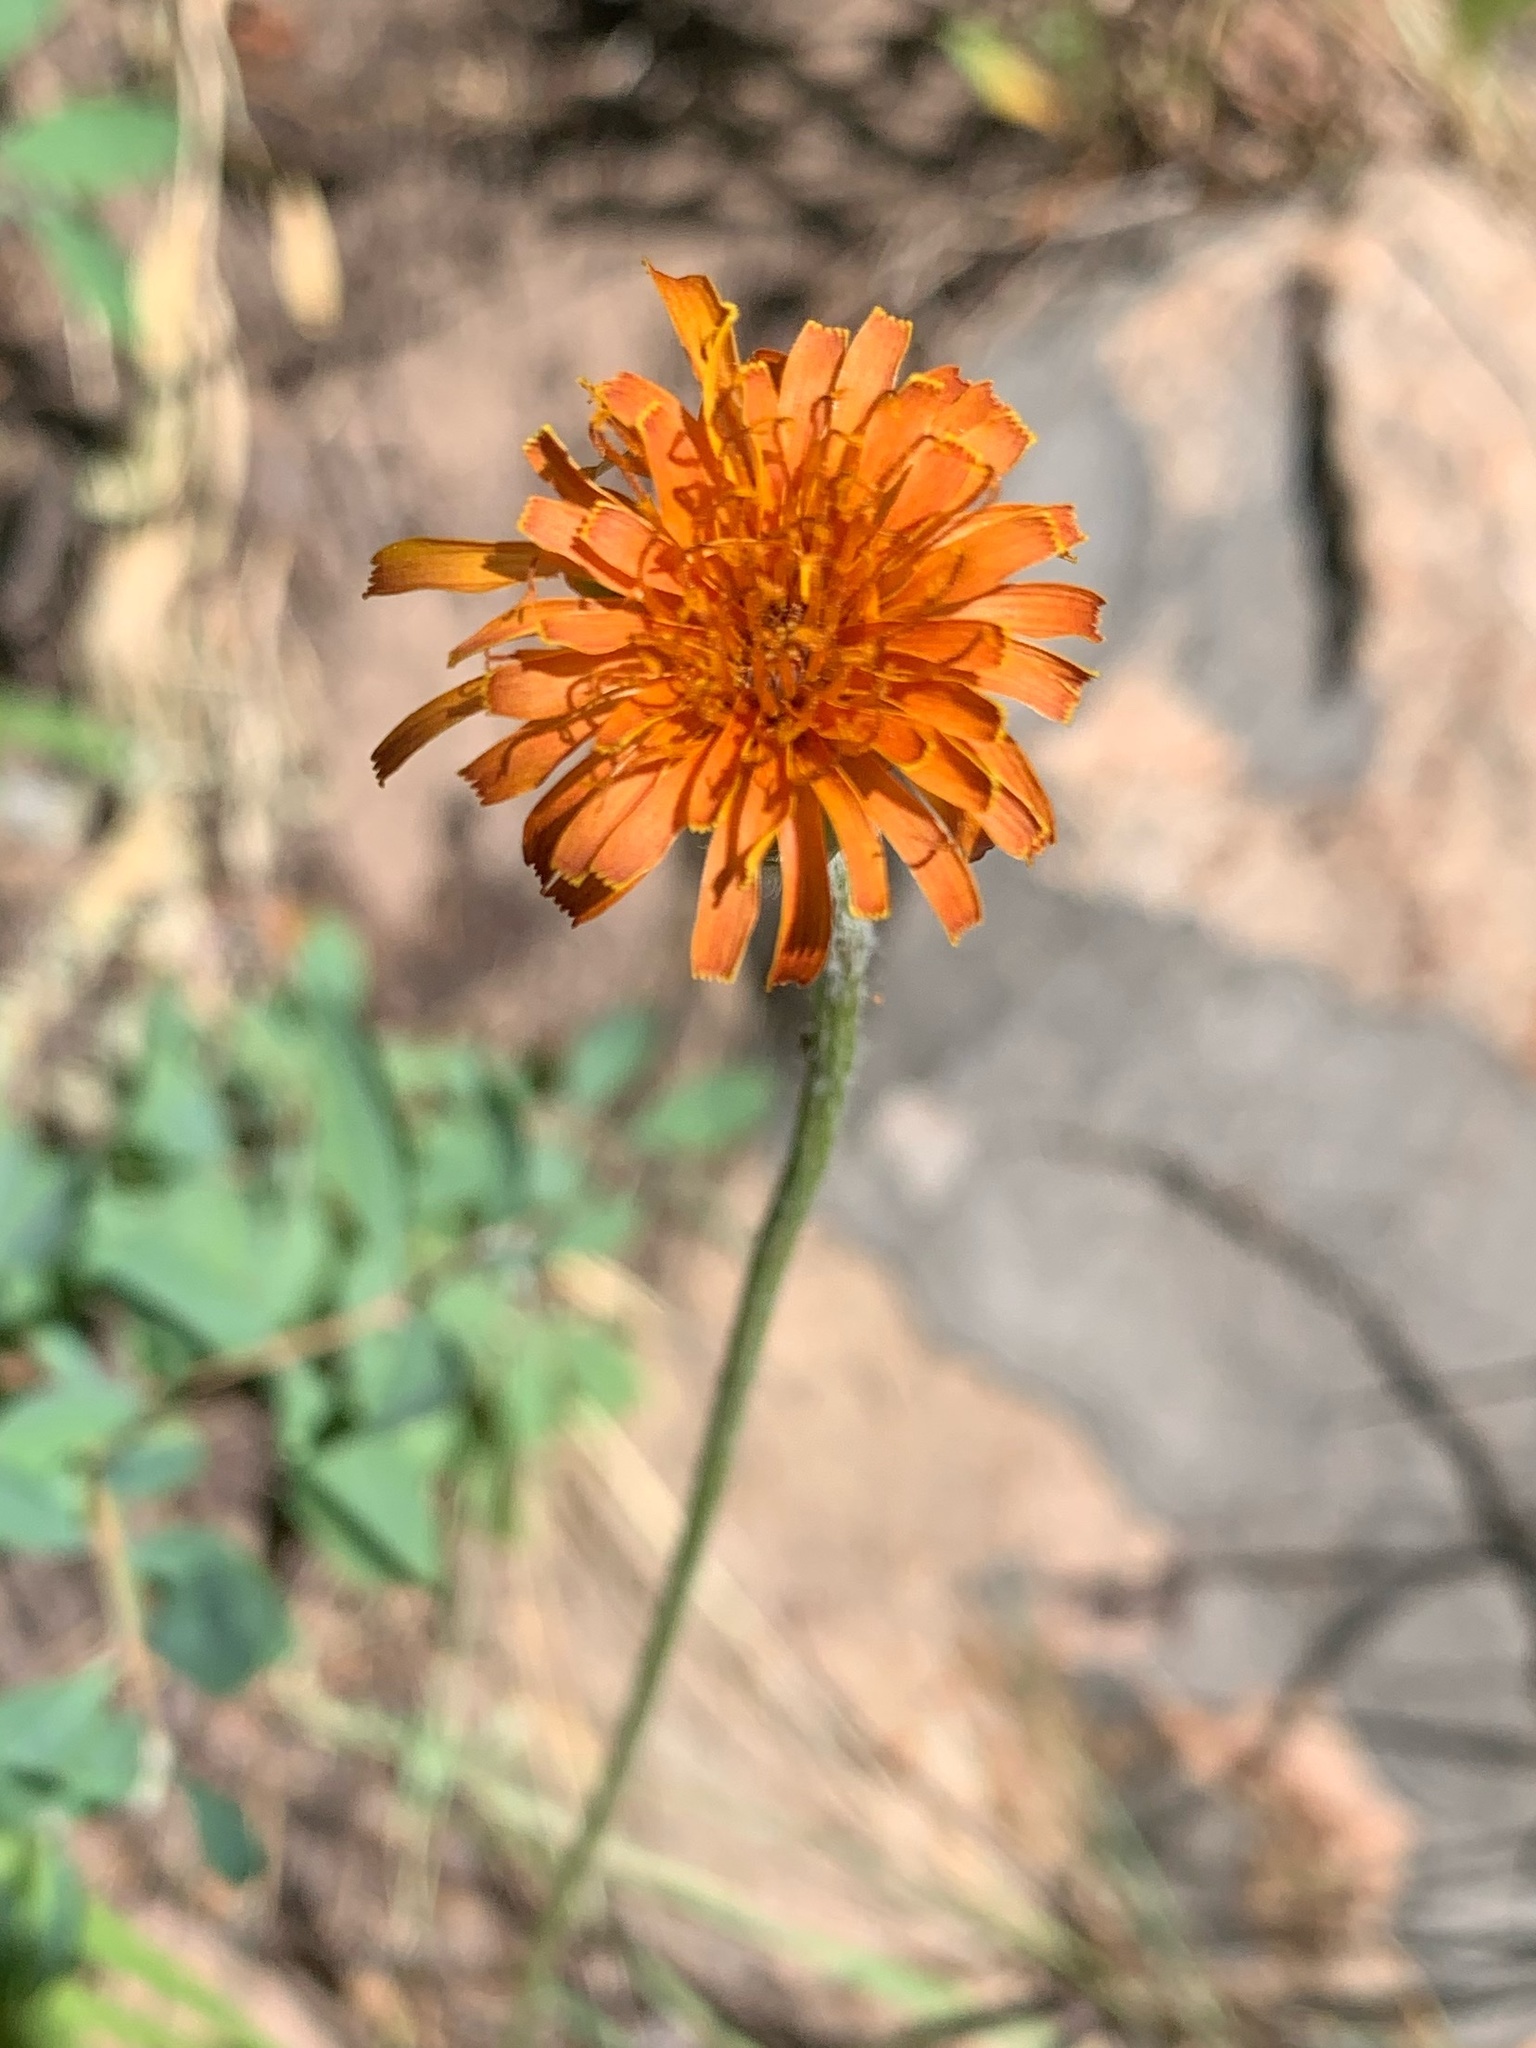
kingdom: Plantae
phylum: Tracheophyta
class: Magnoliopsida
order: Asterales
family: Asteraceae
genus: Agoseris
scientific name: Agoseris aurantiaca
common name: Mountain agoseris
